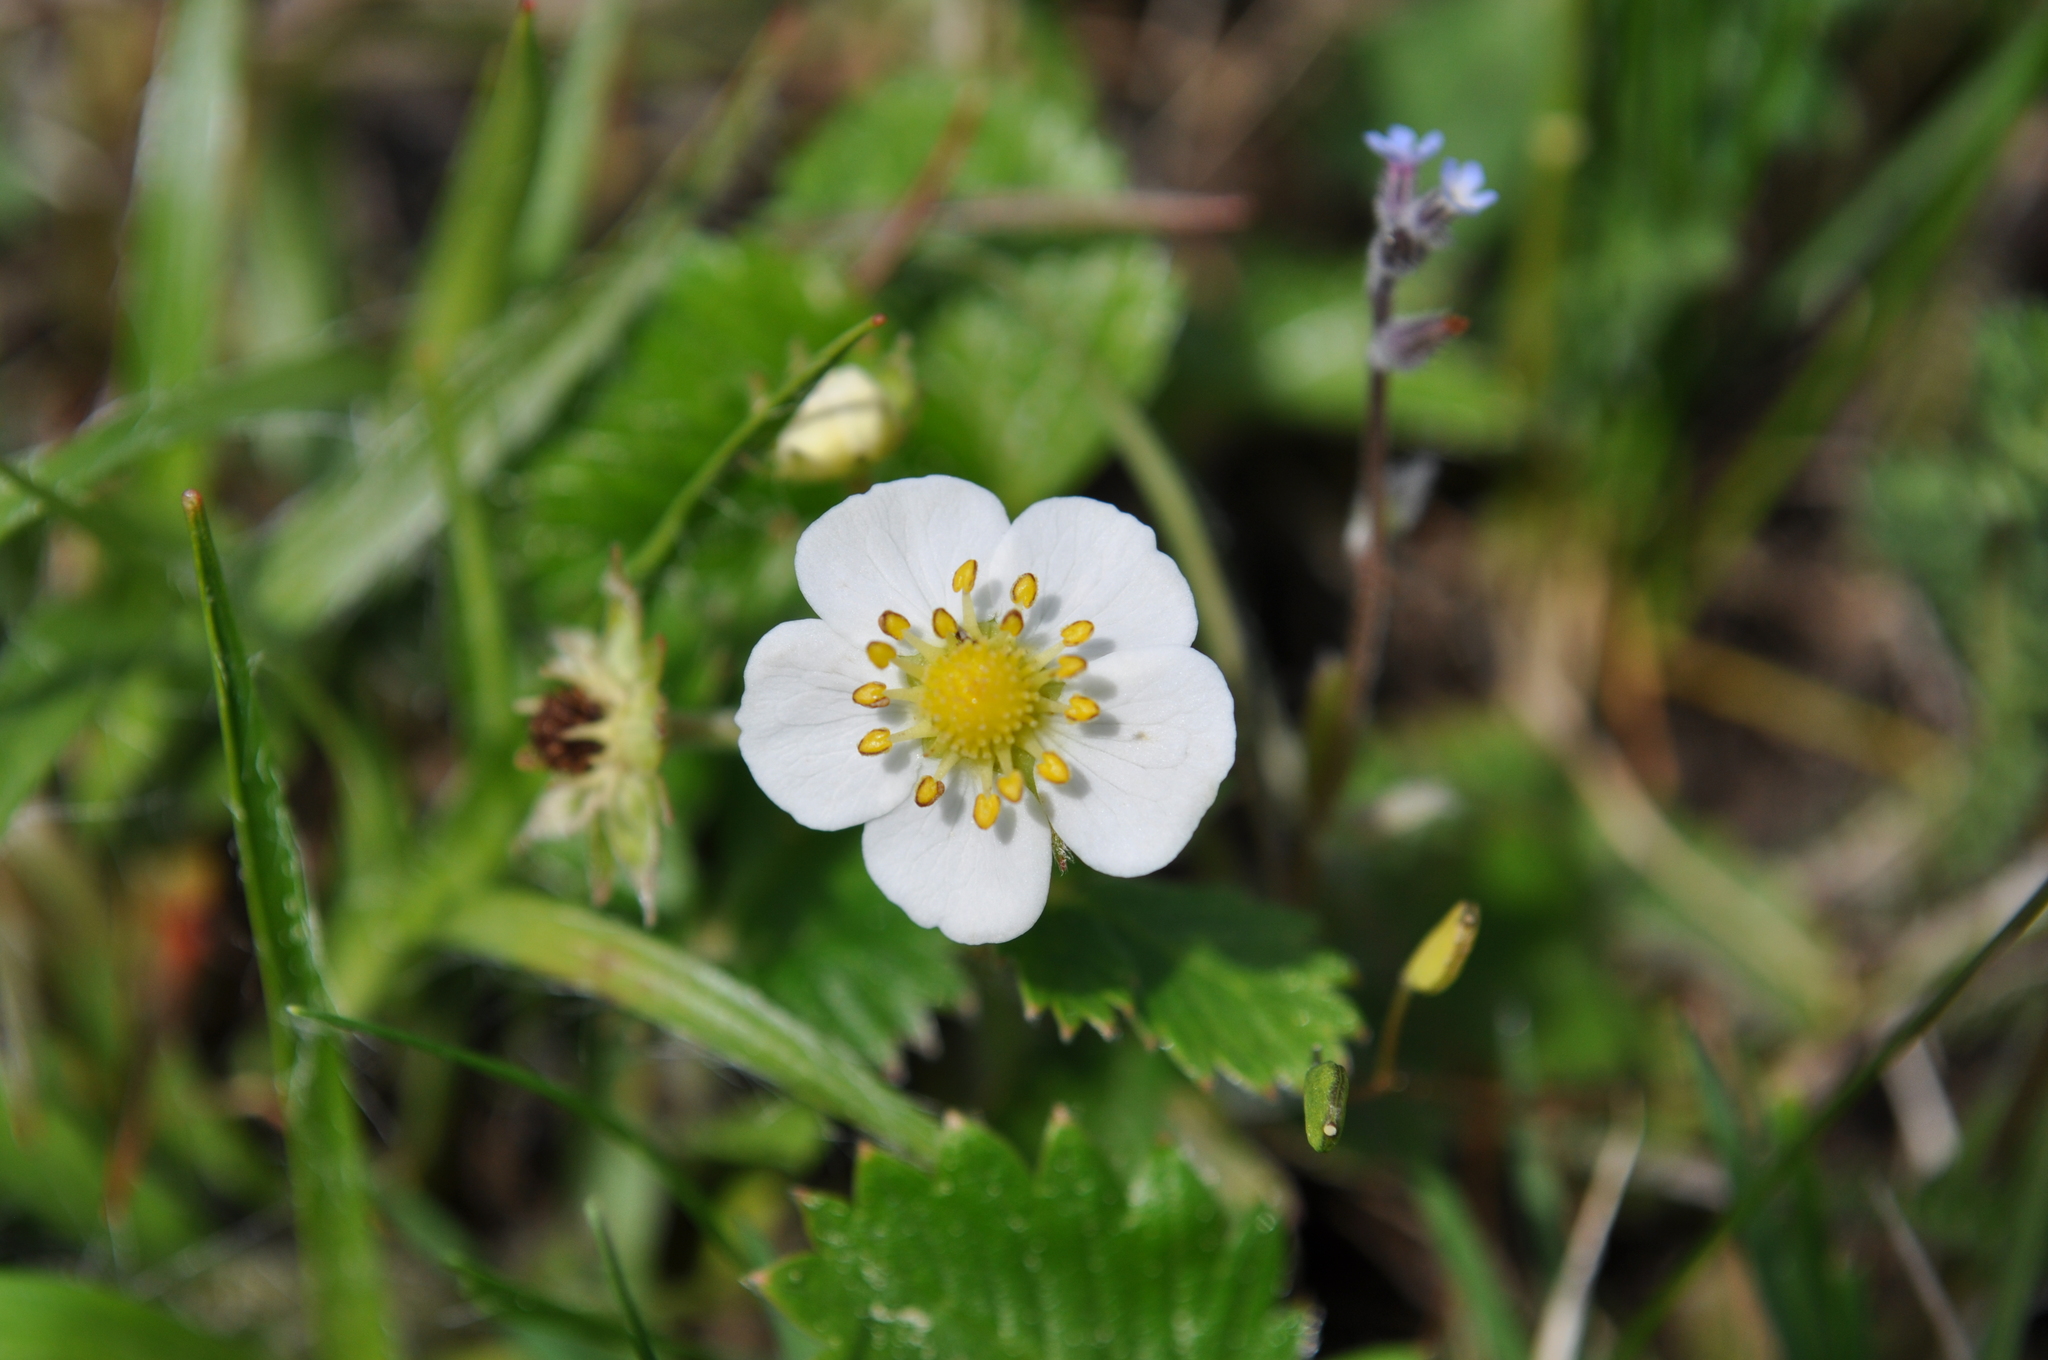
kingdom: Plantae
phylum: Tracheophyta
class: Magnoliopsida
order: Rosales
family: Rosaceae
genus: Fragaria
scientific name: Fragaria vesca
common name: Wild strawberry
